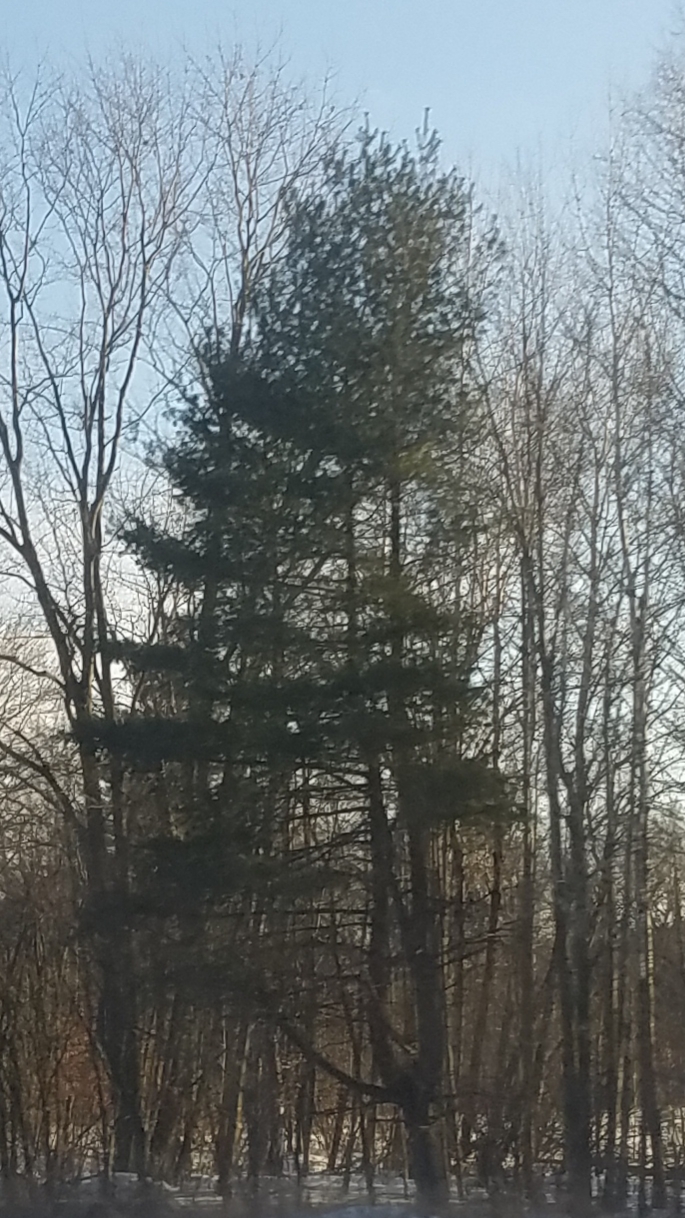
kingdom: Plantae
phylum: Tracheophyta
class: Pinopsida
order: Pinales
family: Pinaceae
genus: Pinus
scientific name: Pinus strobus
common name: Weymouth pine
